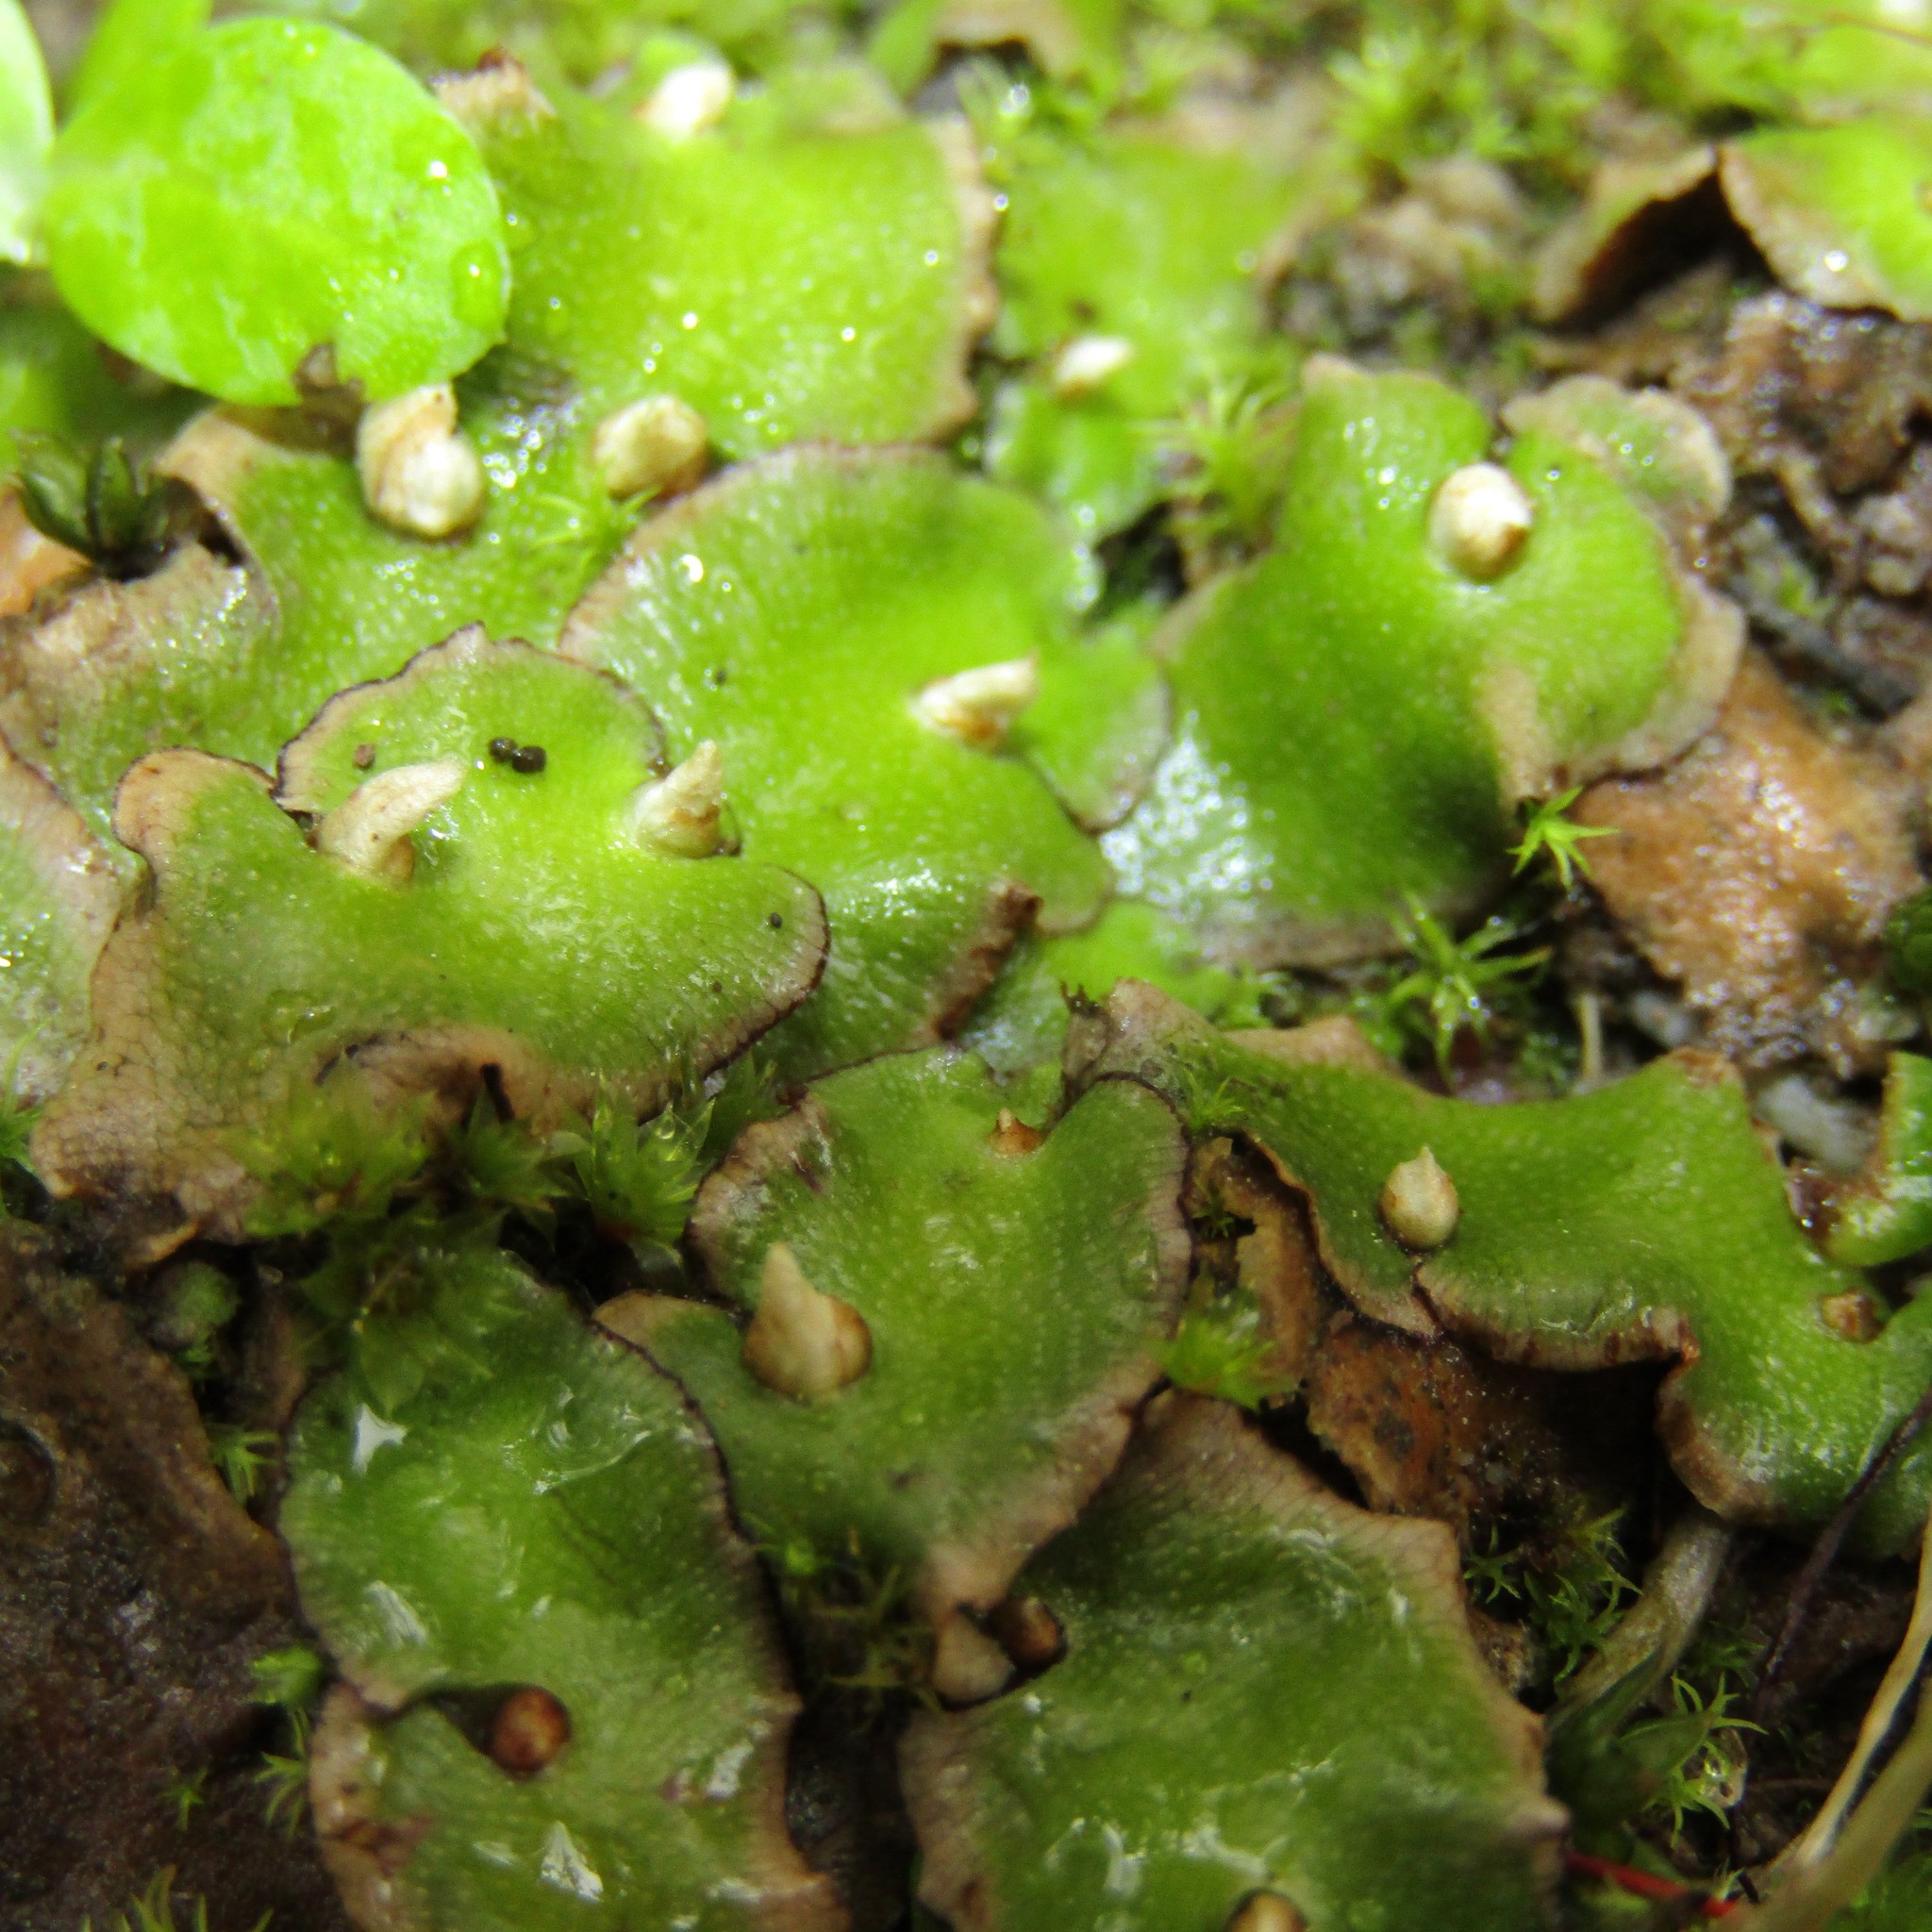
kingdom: Plantae
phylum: Marchantiophyta
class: Marchantiopsida
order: Lunulariales
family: Lunulariaceae
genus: Lunularia
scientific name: Lunularia cruciata
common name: Crescent-cup liverwort
